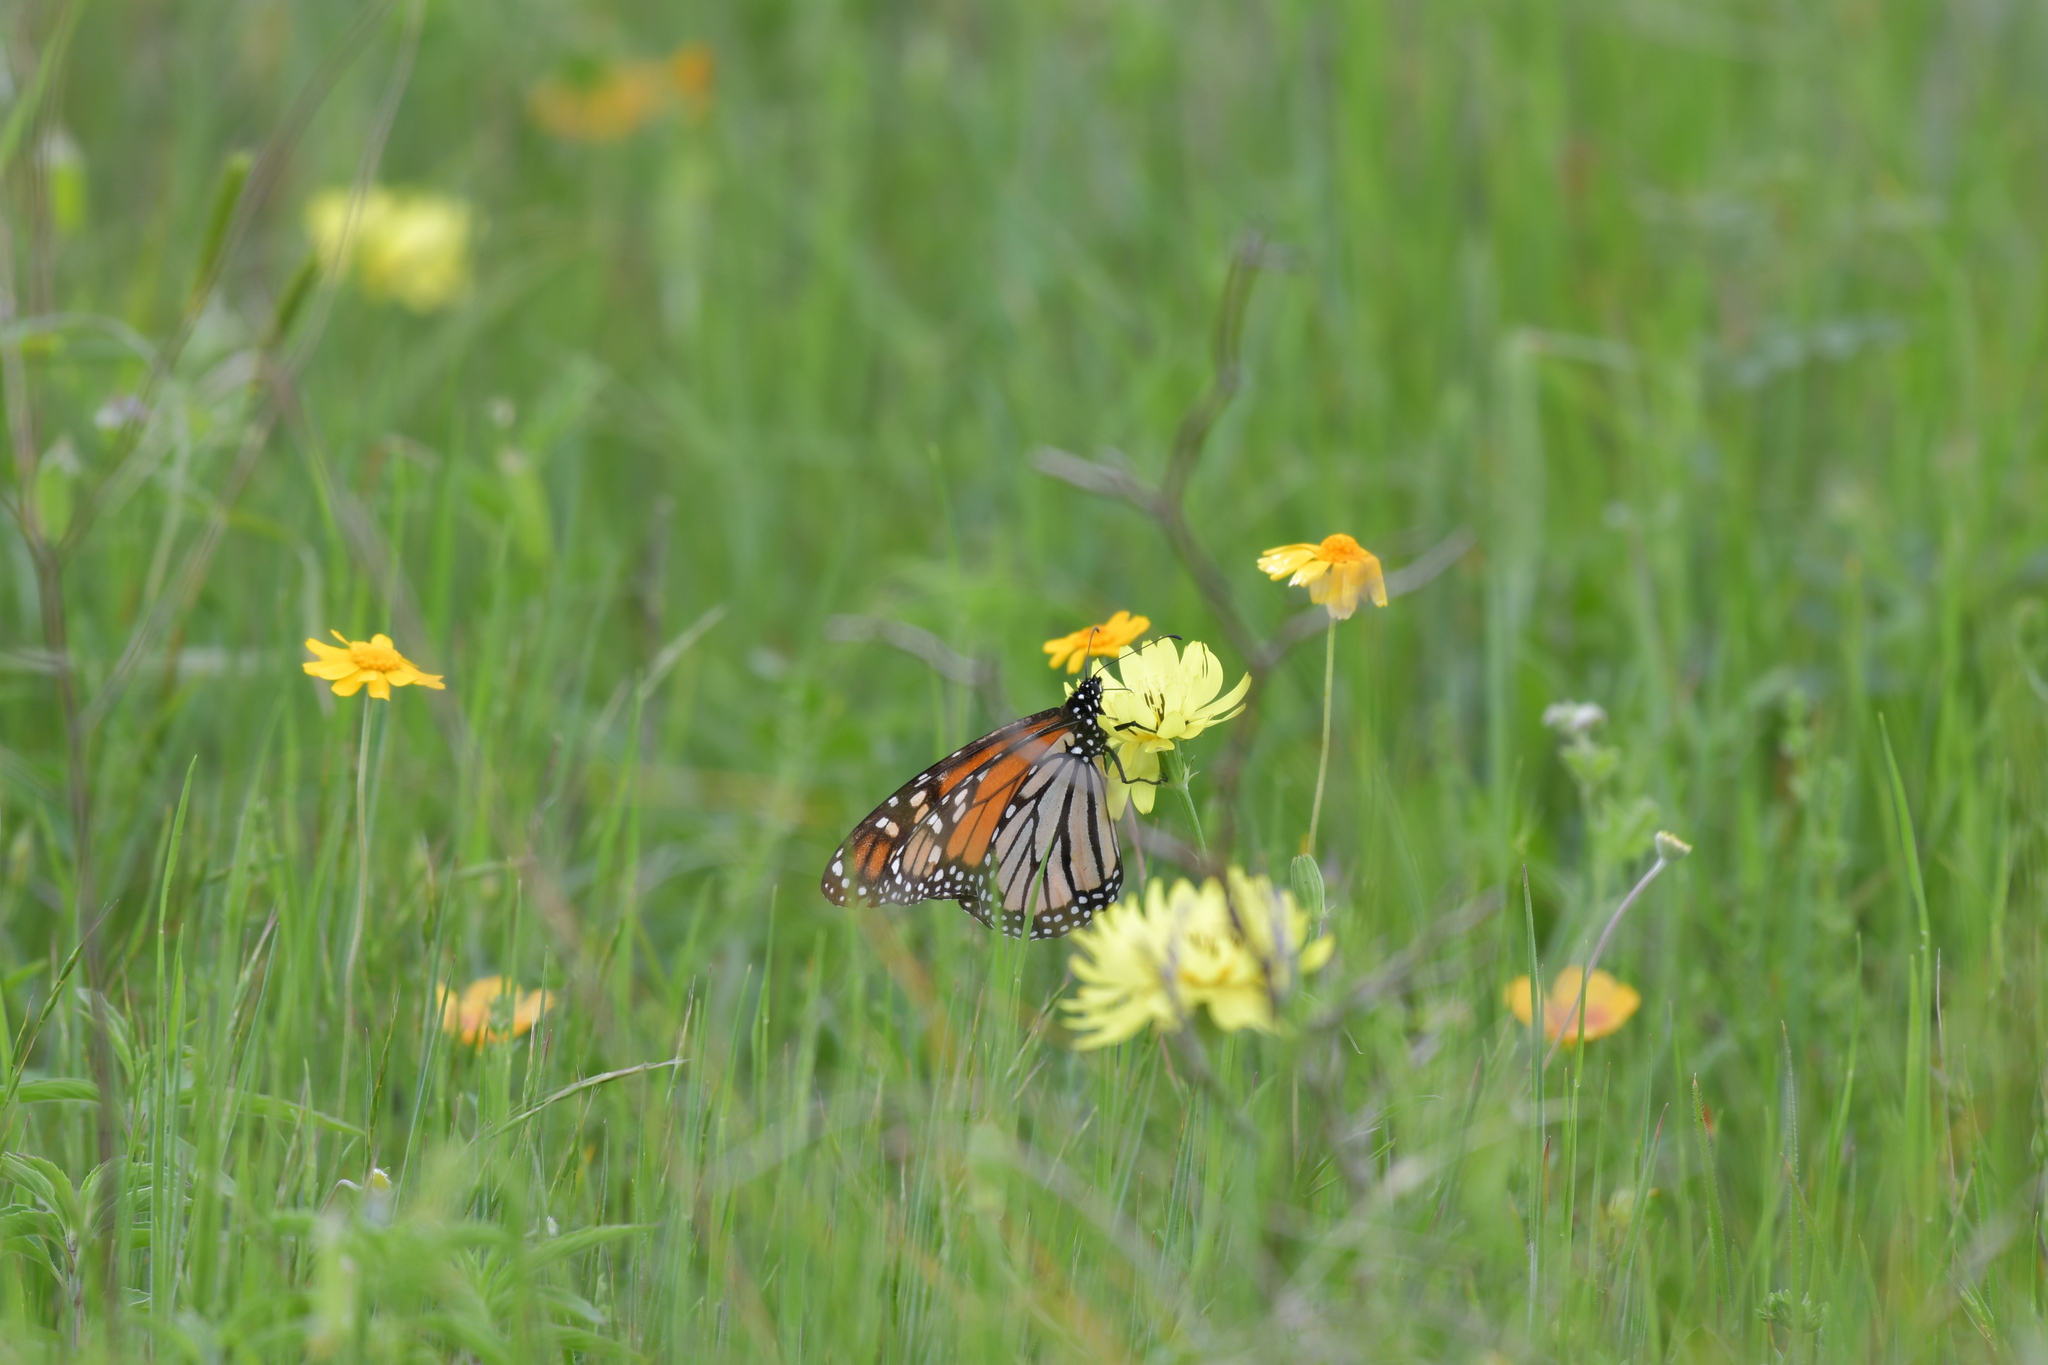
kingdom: Animalia
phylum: Arthropoda
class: Insecta
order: Lepidoptera
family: Nymphalidae
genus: Danaus
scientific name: Danaus plexippus
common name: Monarch
